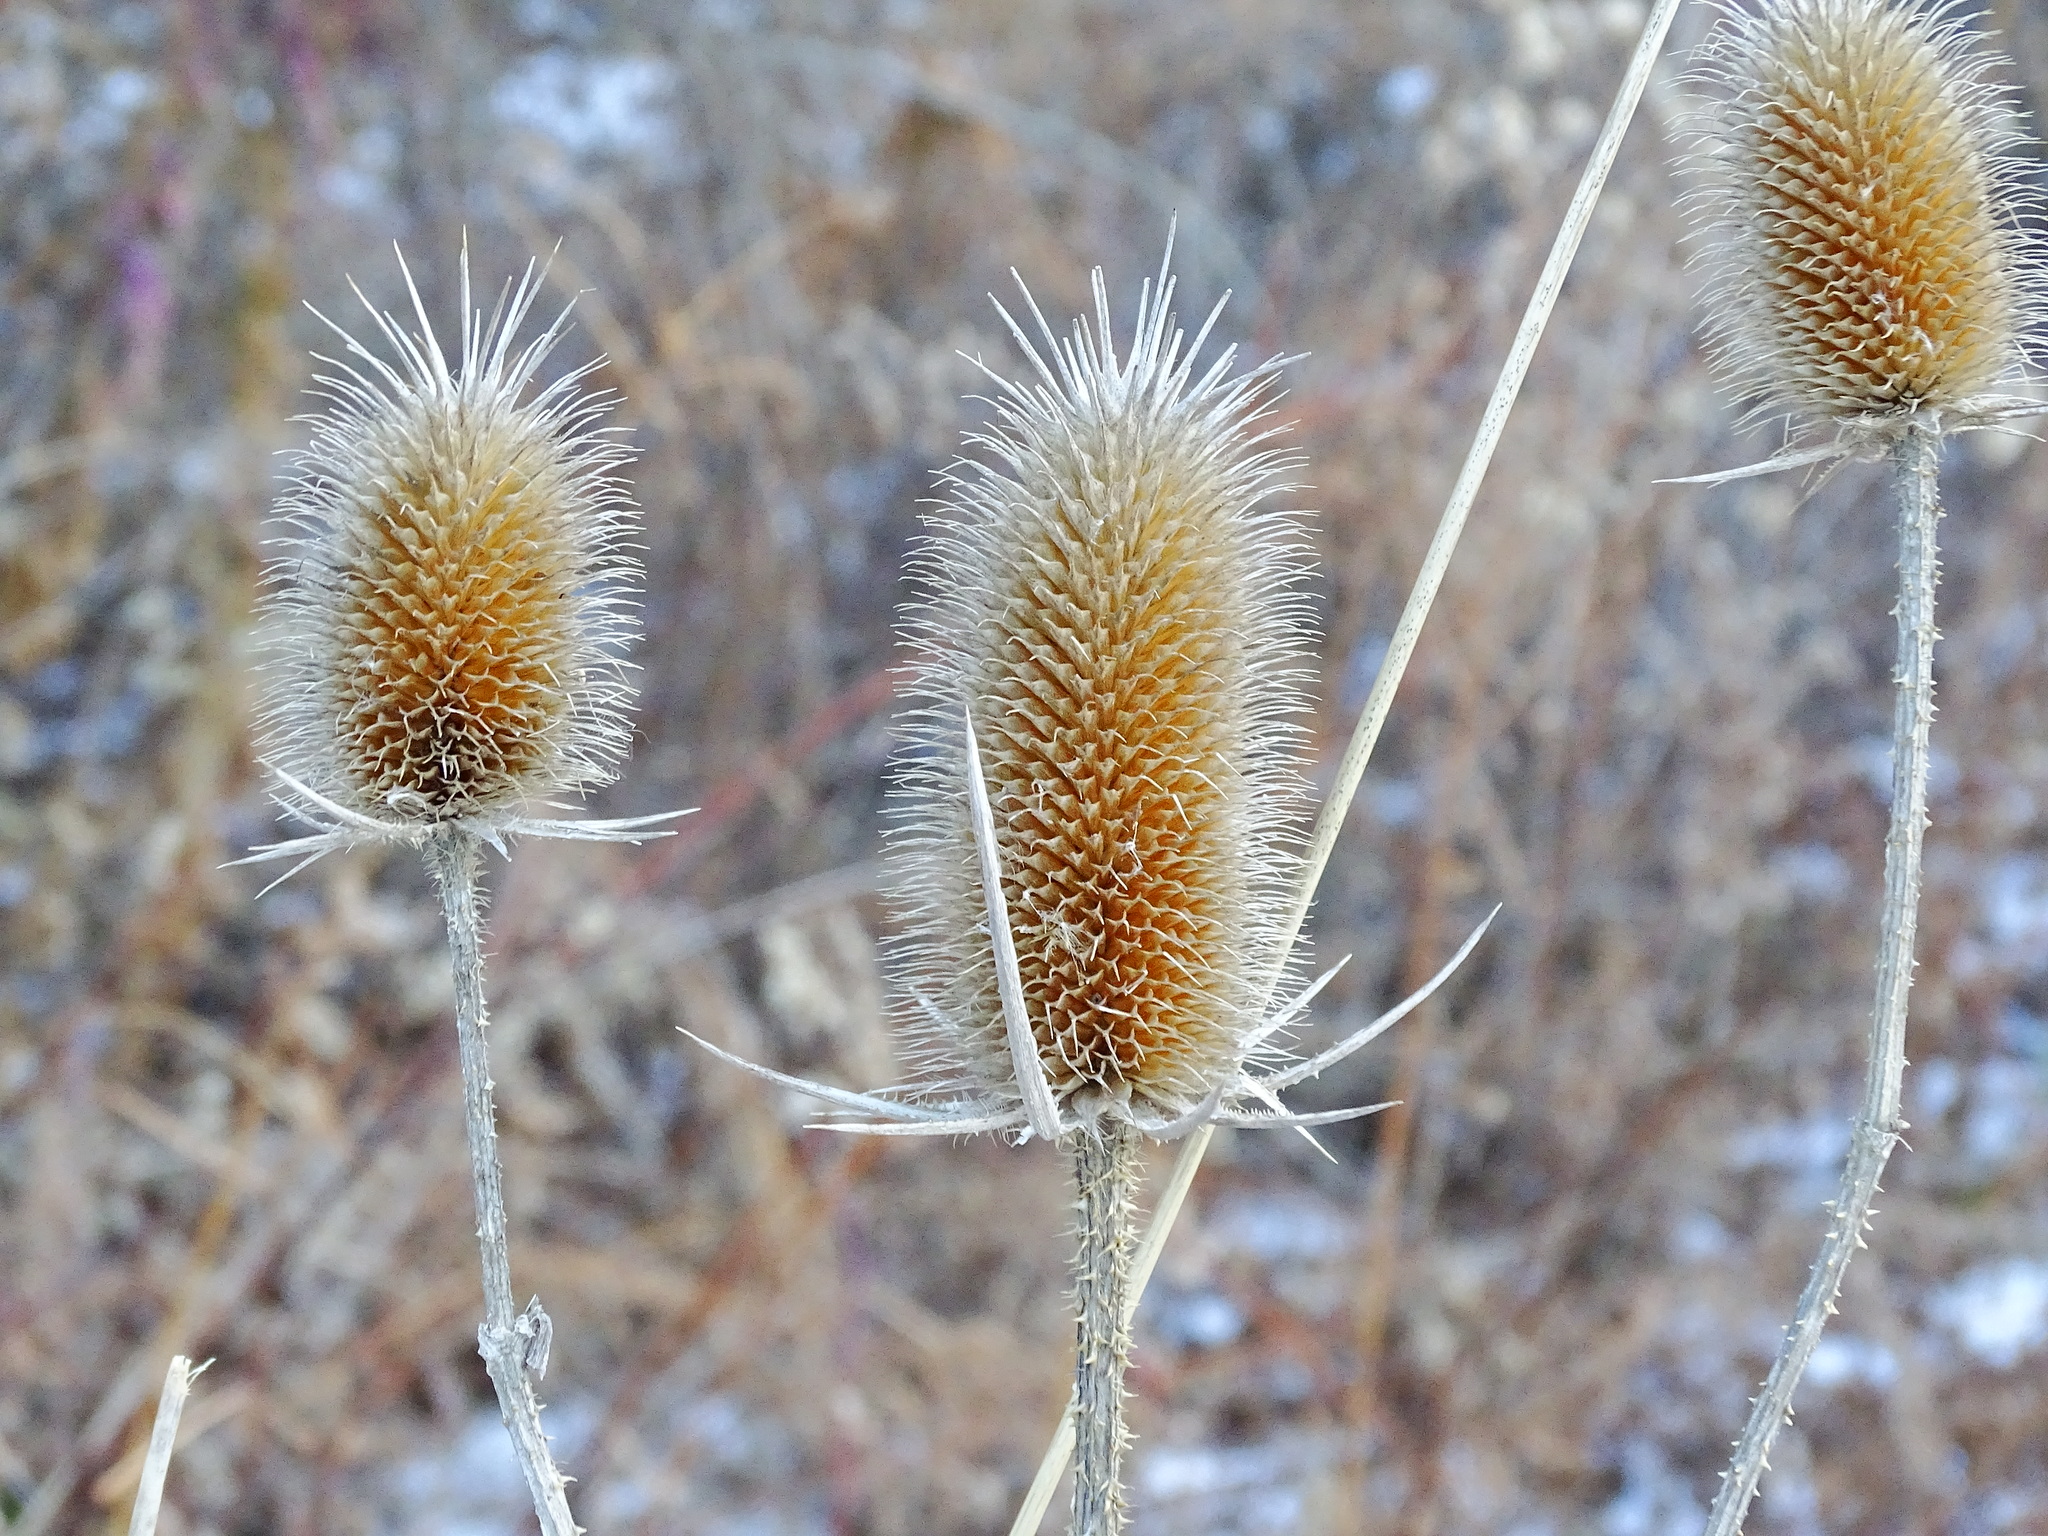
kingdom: Plantae
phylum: Tracheophyta
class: Magnoliopsida
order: Dipsacales
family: Caprifoliaceae
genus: Dipsacus
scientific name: Dipsacus laciniatus
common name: Cut-leaved teasel
